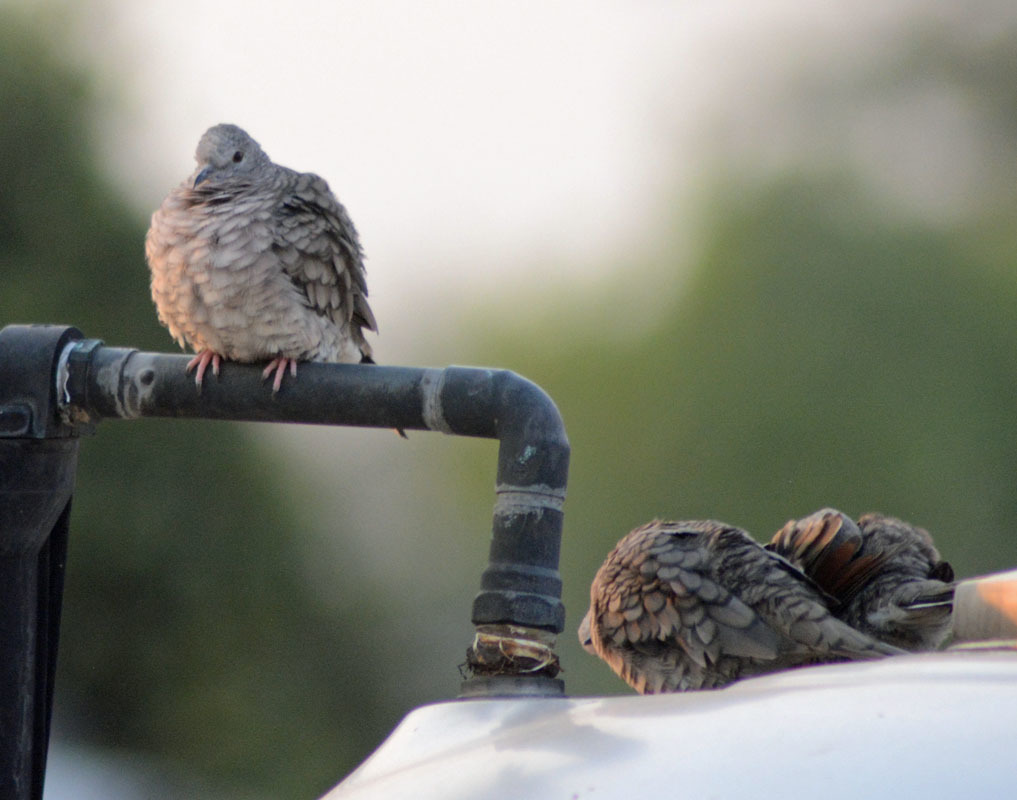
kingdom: Animalia
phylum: Chordata
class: Aves
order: Columbiformes
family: Columbidae
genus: Columbina
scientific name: Columbina inca
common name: Inca dove
